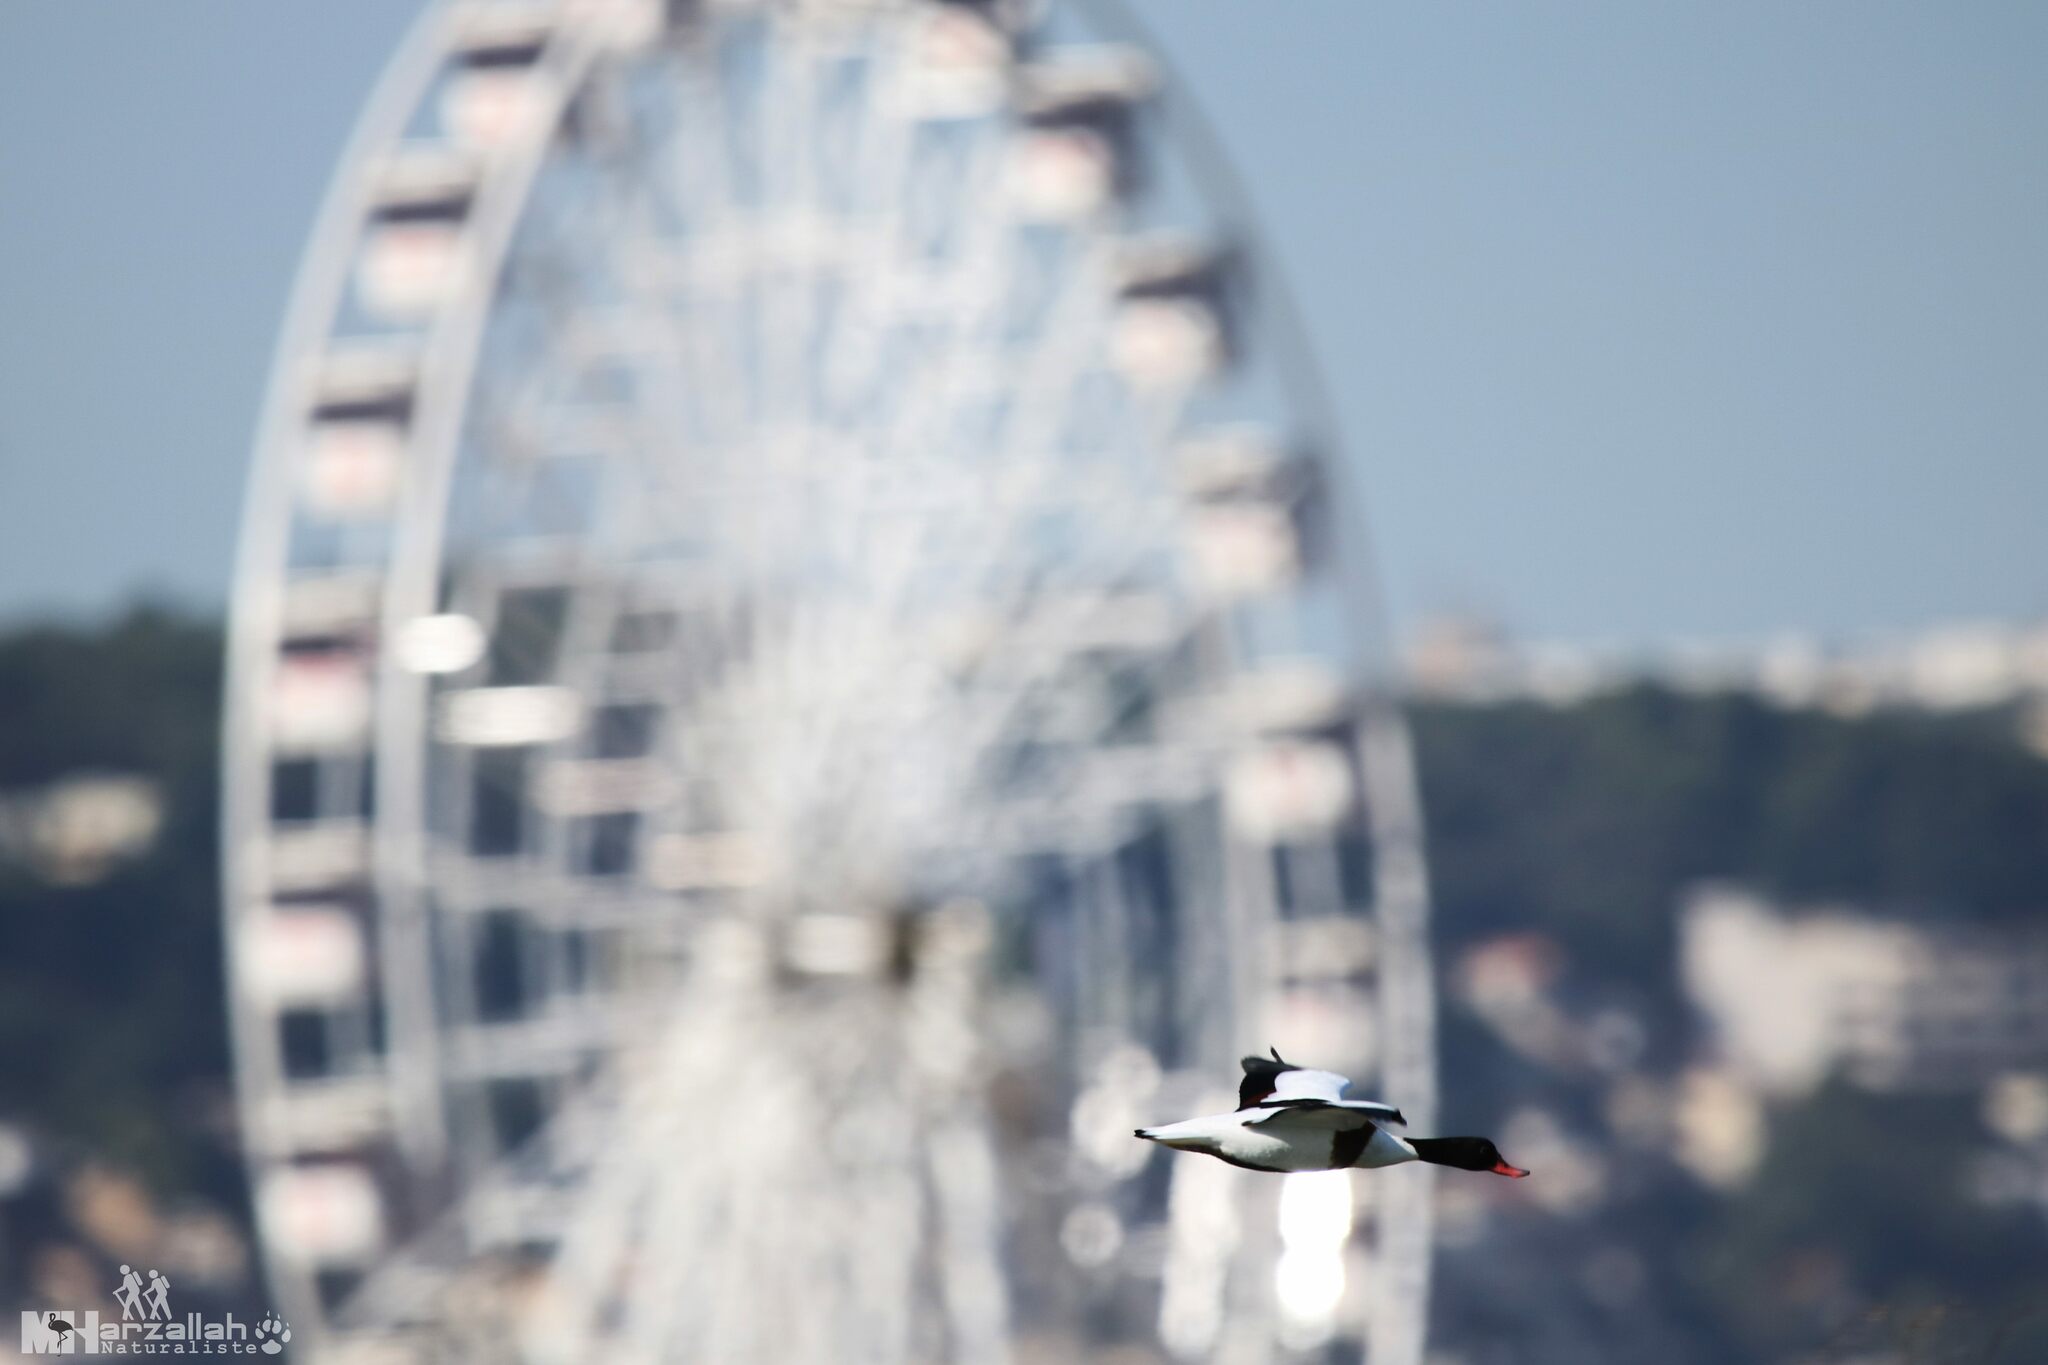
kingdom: Animalia
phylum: Chordata
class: Aves
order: Anseriformes
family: Anatidae
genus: Tadorna
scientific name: Tadorna tadorna
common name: Common shelduck
